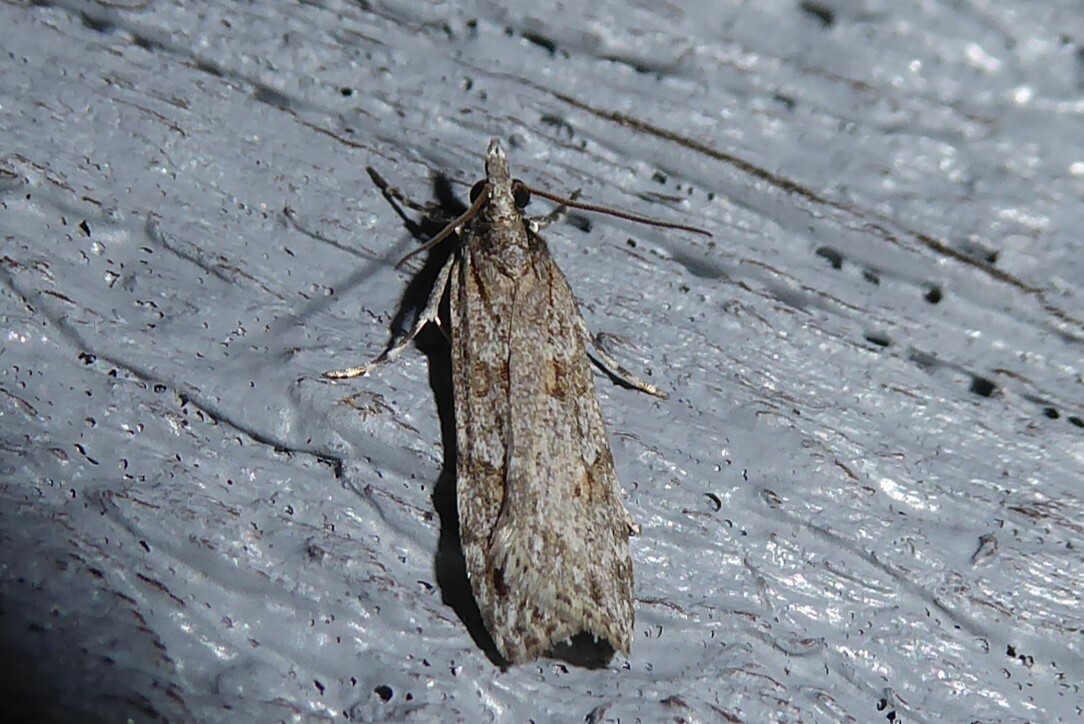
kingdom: Animalia
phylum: Arthropoda
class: Insecta
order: Lepidoptera
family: Crambidae
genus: Scoparia
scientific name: Scoparia chalicodes
